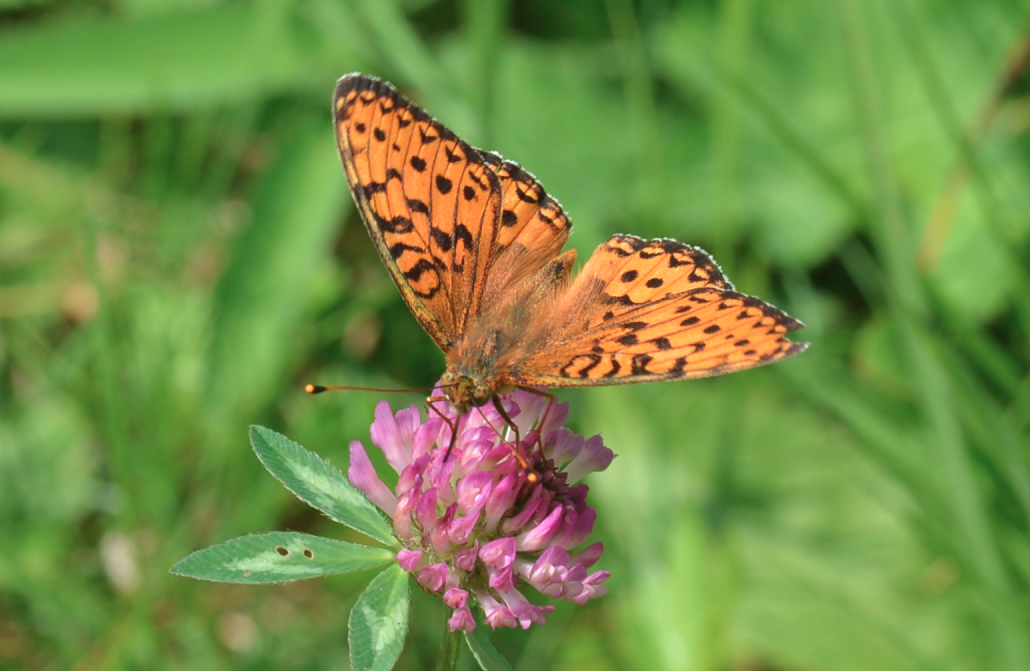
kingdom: Animalia
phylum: Arthropoda
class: Insecta
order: Lepidoptera
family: Nymphalidae
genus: Speyeria
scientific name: Speyeria aglaja
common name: Dark green fritillary
